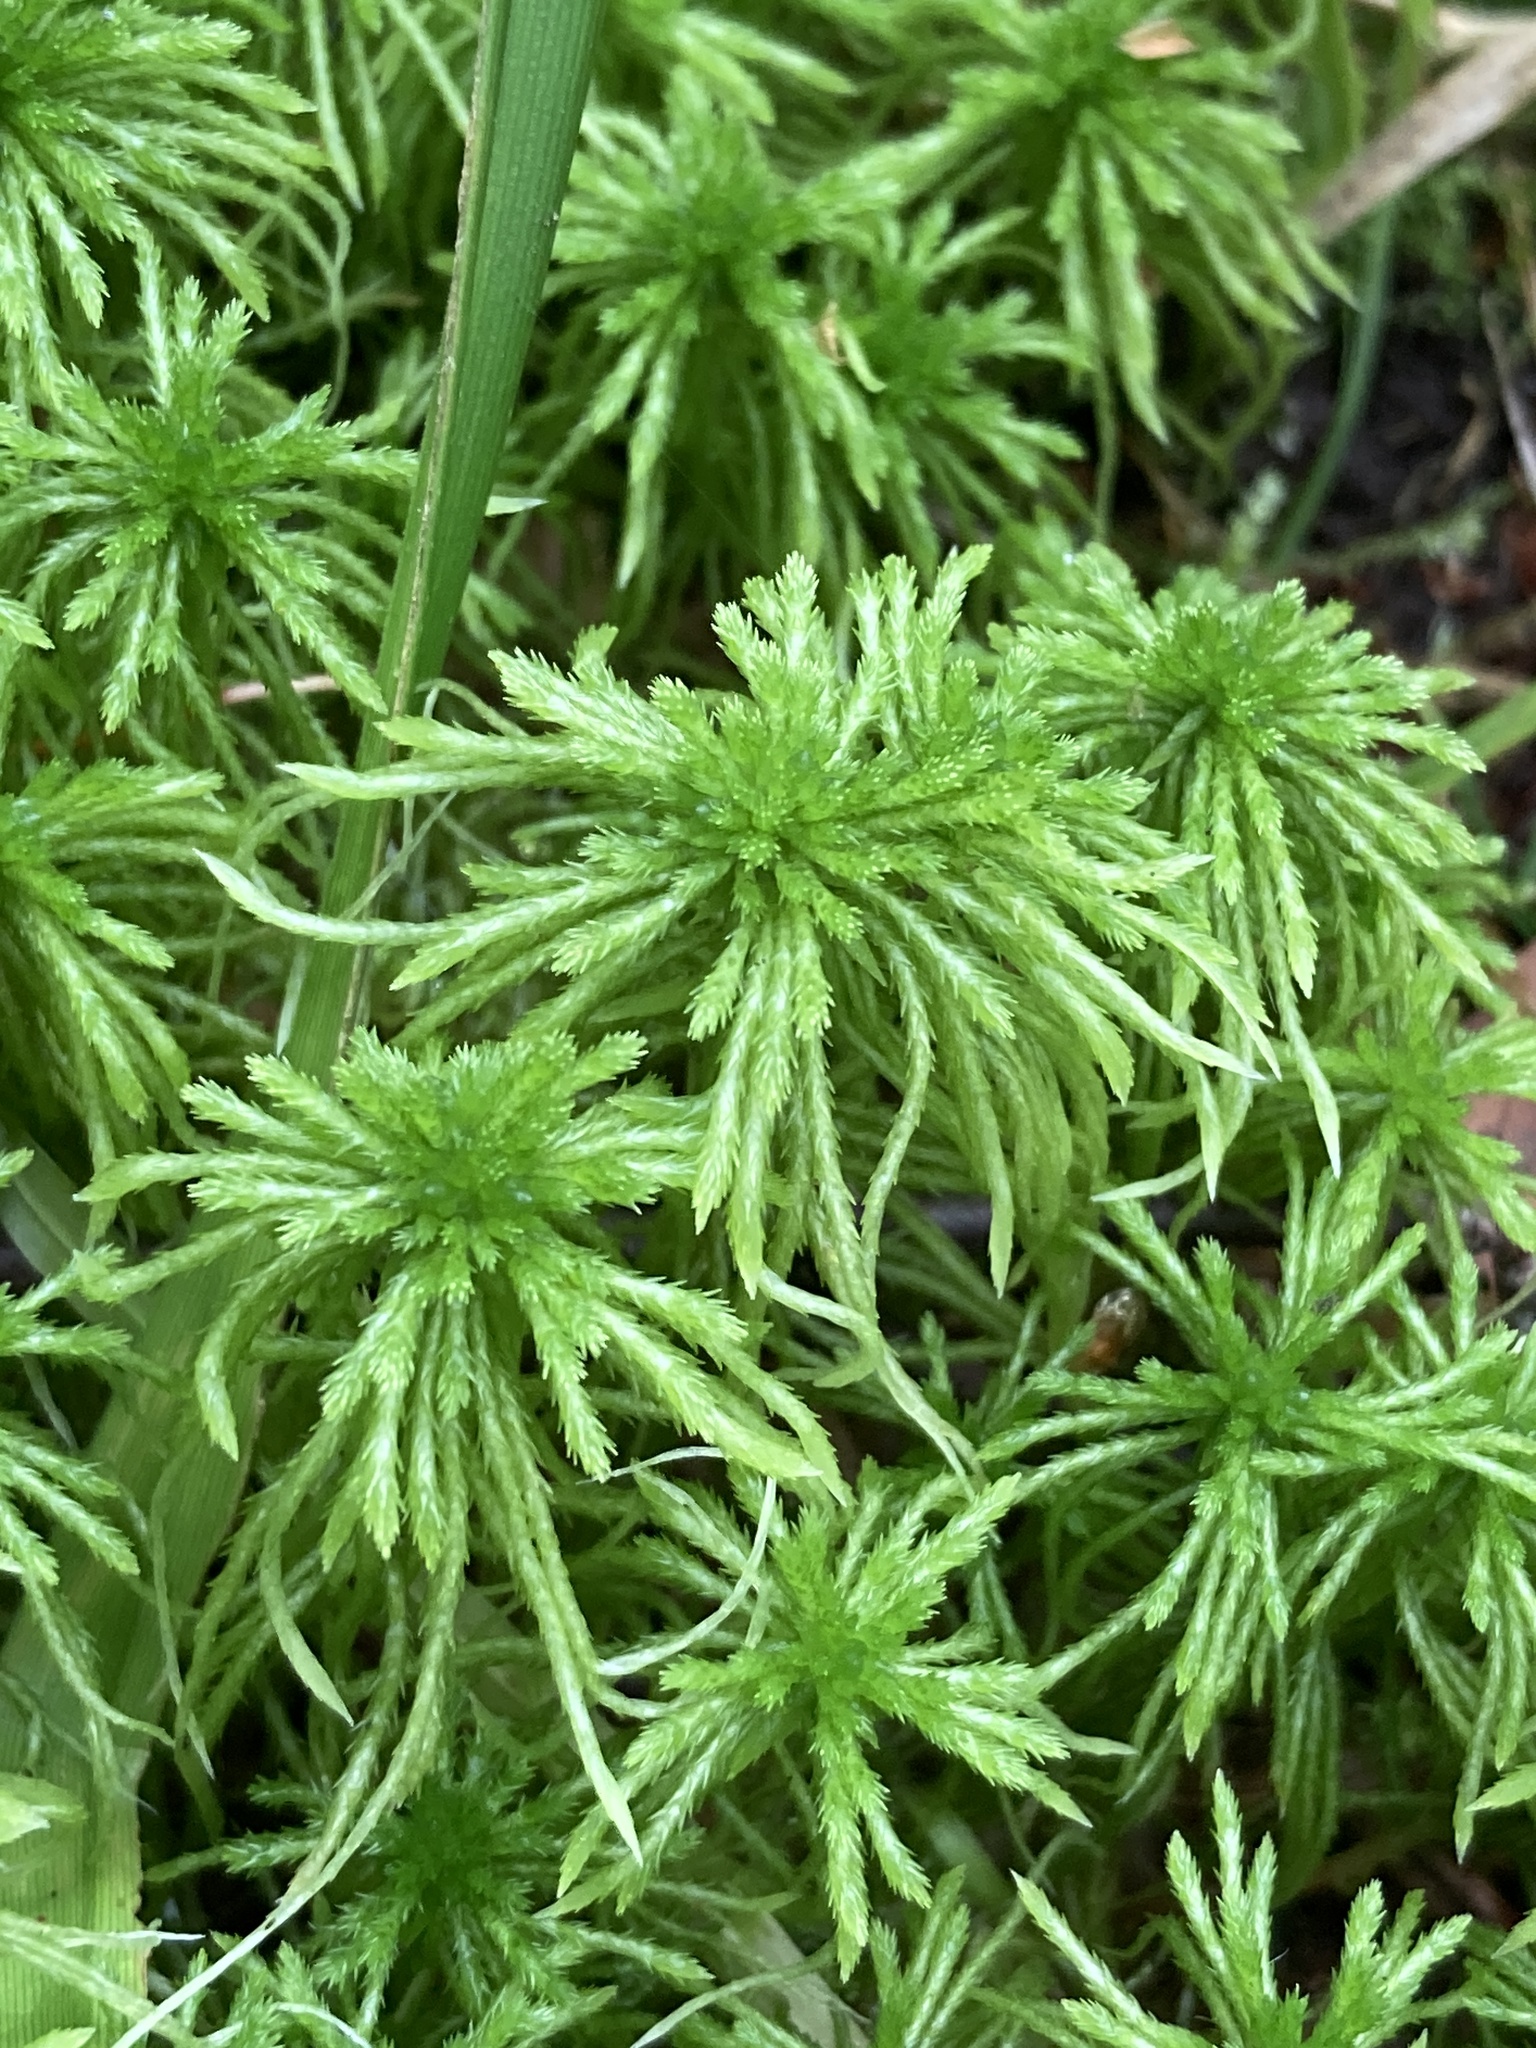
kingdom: Plantae
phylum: Bryophyta
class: Sphagnopsida
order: Sphagnales
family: Sphagnaceae
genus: Sphagnum
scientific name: Sphagnum girgensohnii
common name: Girgensohn's peat moss
